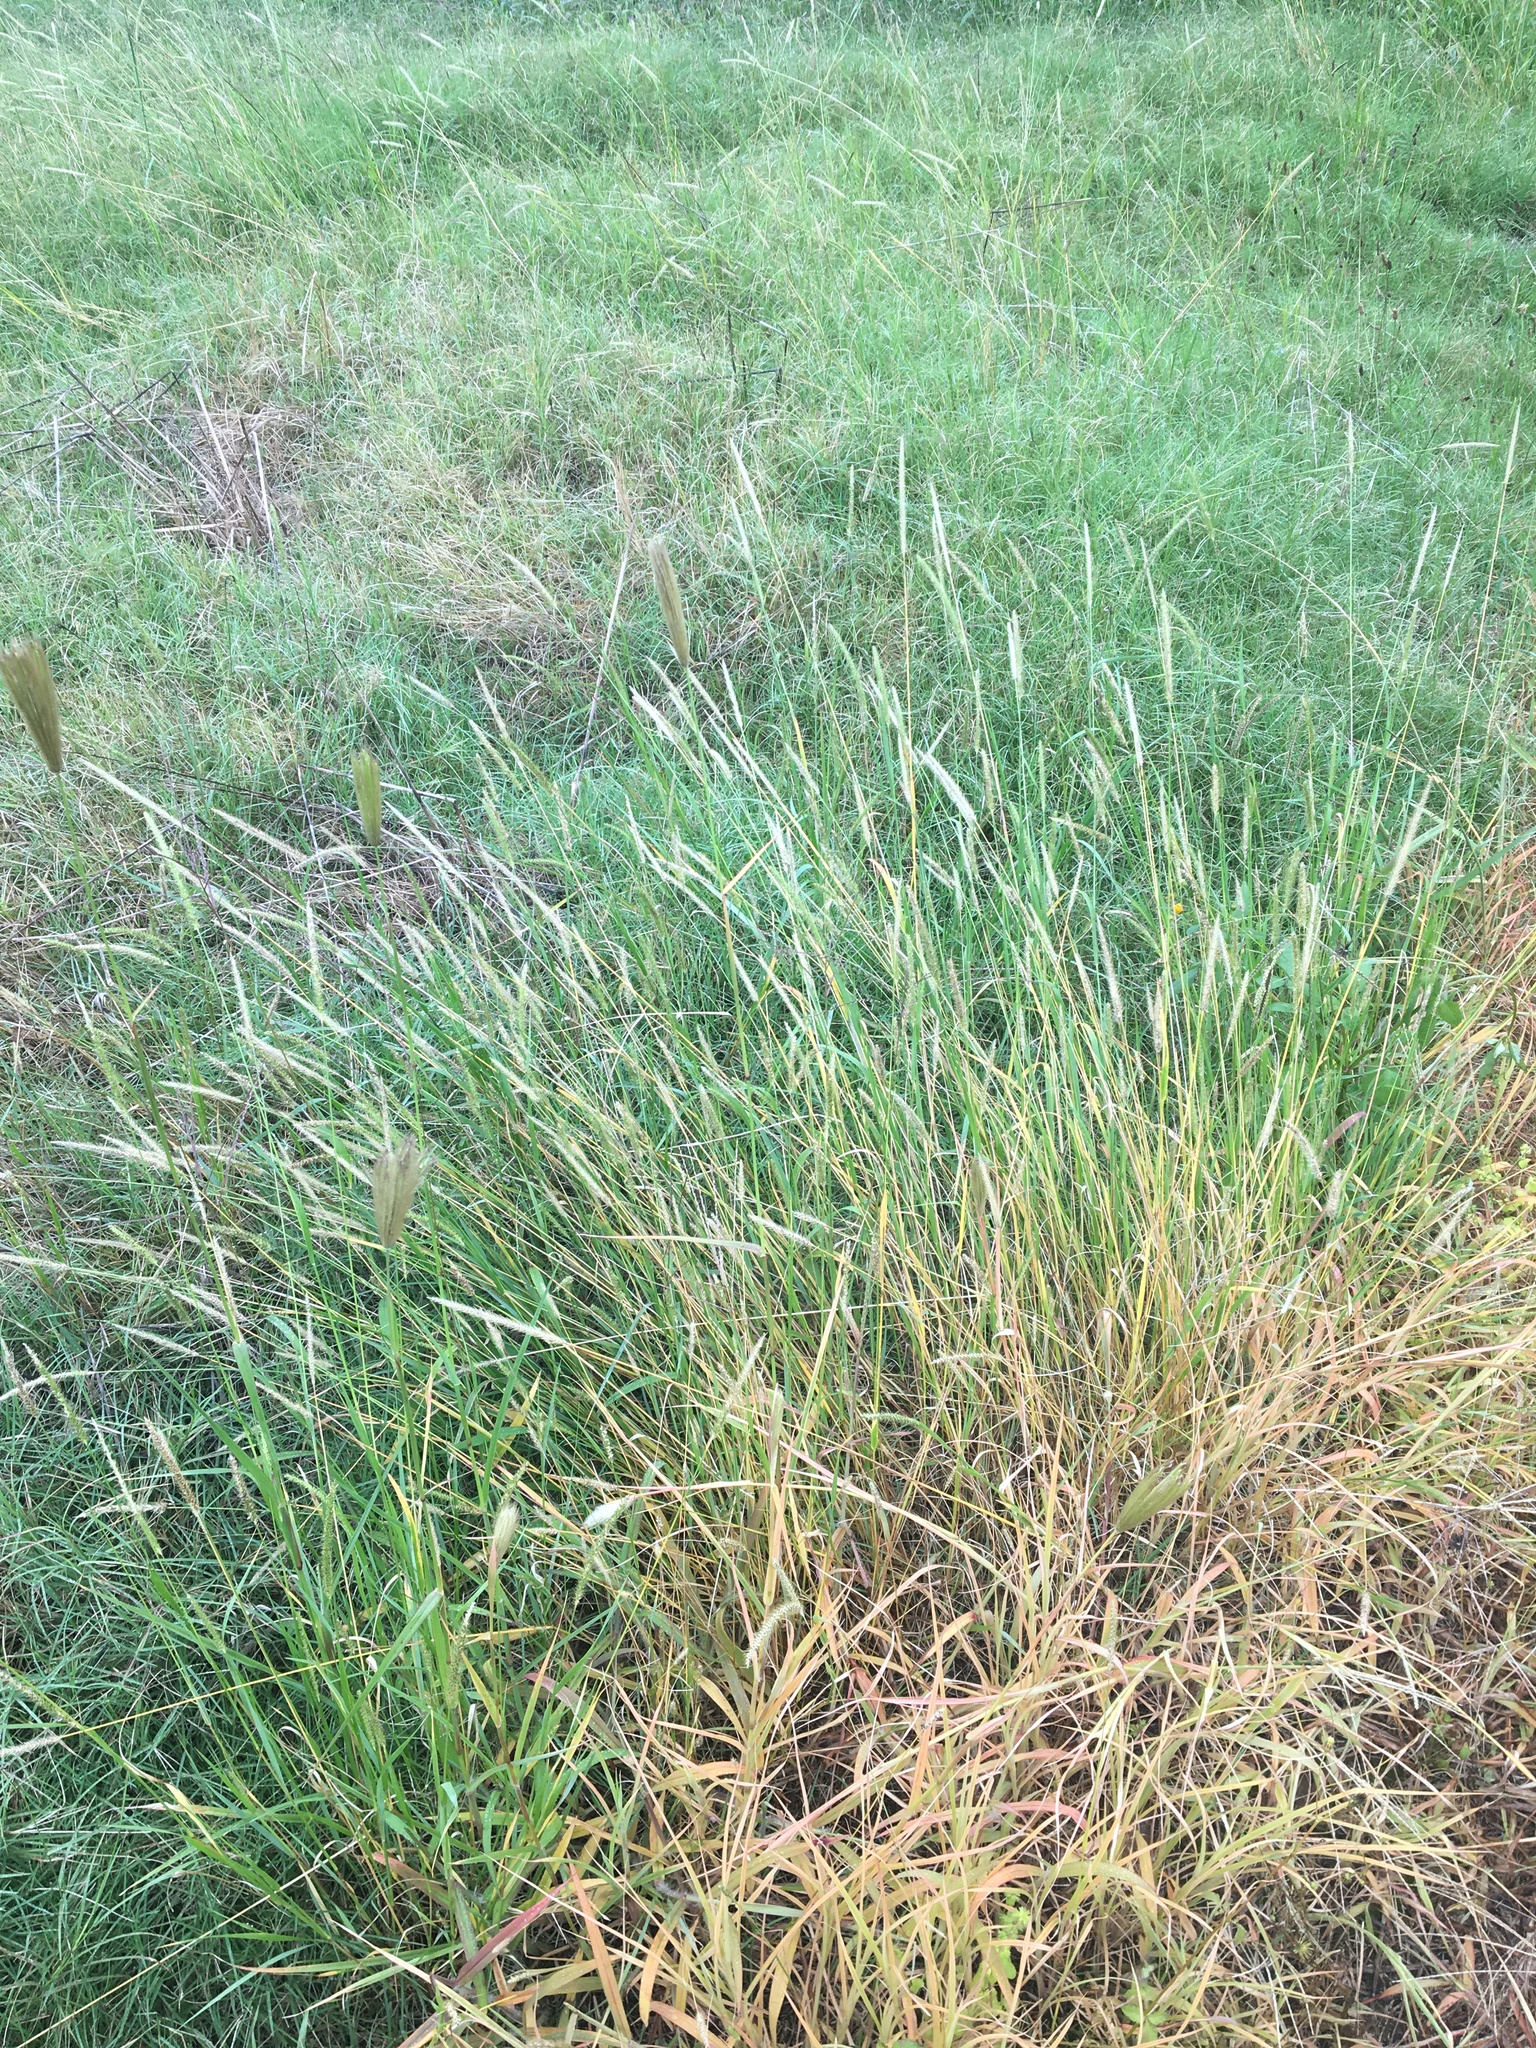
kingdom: Plantae
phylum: Tracheophyta
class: Liliopsida
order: Poales
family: Poaceae
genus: Chloris
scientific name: Chloris virgata
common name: Feathery rhodes-grass
